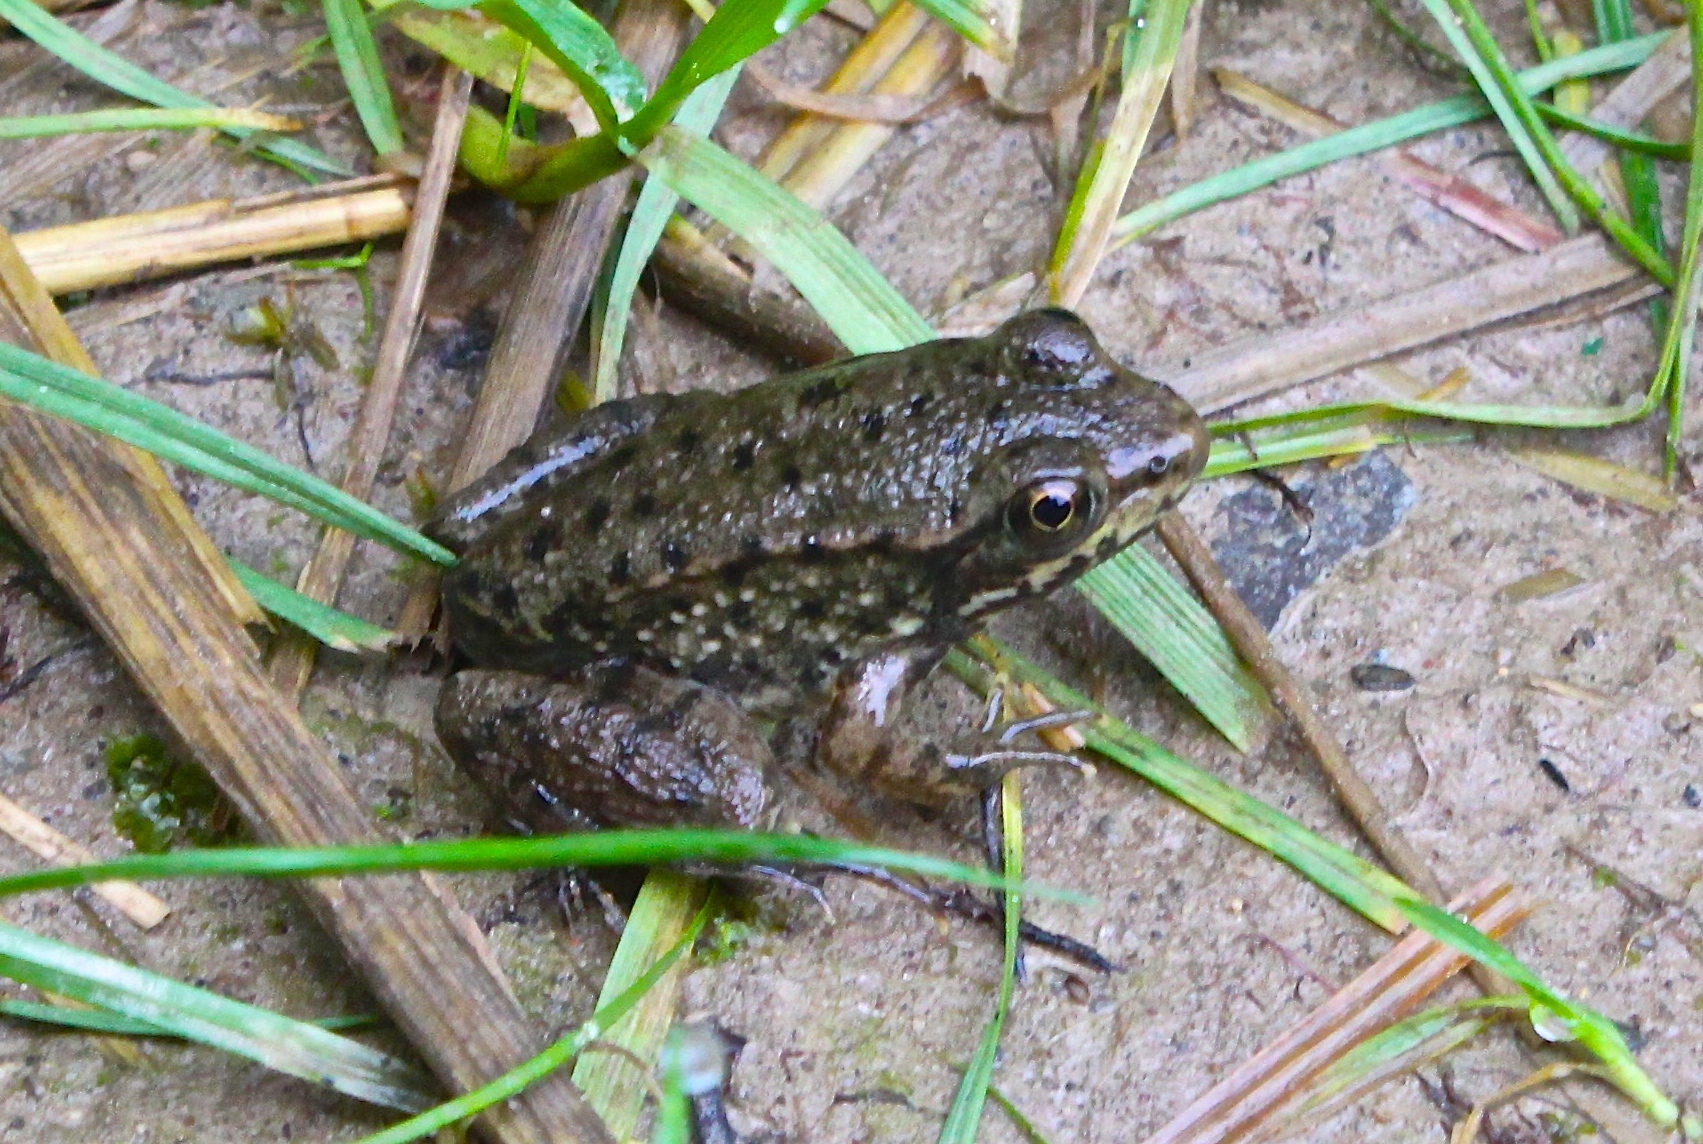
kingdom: Animalia
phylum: Chordata
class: Amphibia
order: Anura
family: Ranidae
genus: Lithobates
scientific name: Lithobates clamitans
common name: Green frog
